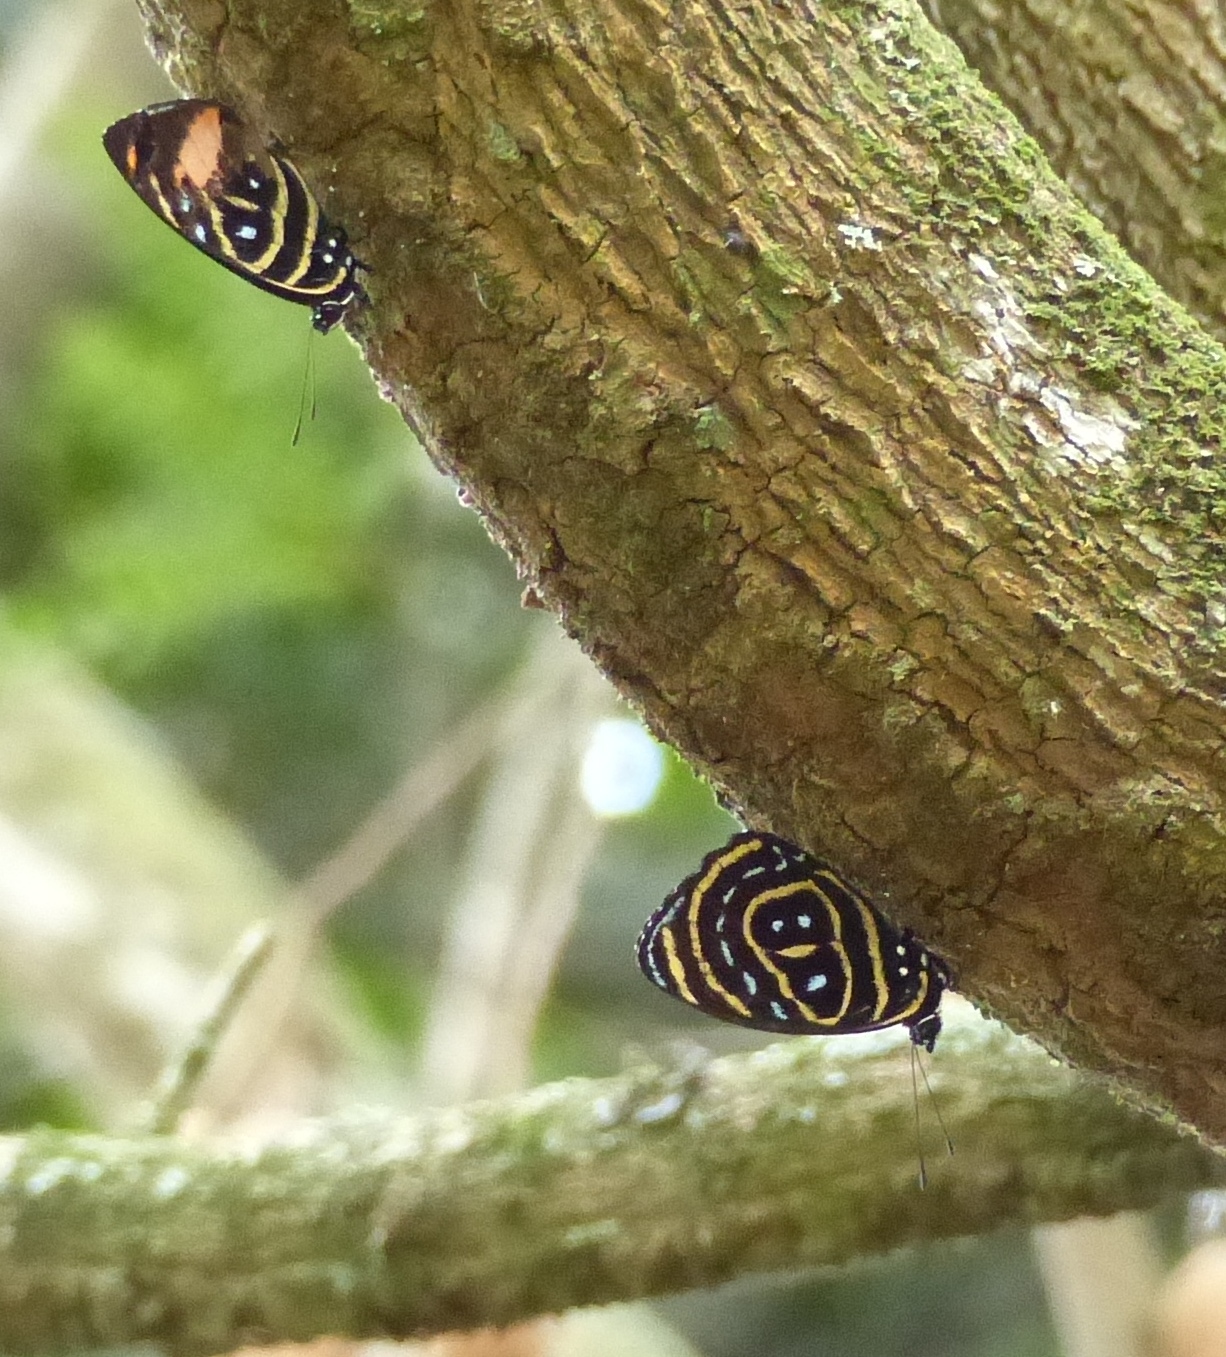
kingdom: Animalia
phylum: Arthropoda
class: Insecta
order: Lepidoptera
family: Nymphalidae
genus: Catagramma
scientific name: Catagramma astarte
